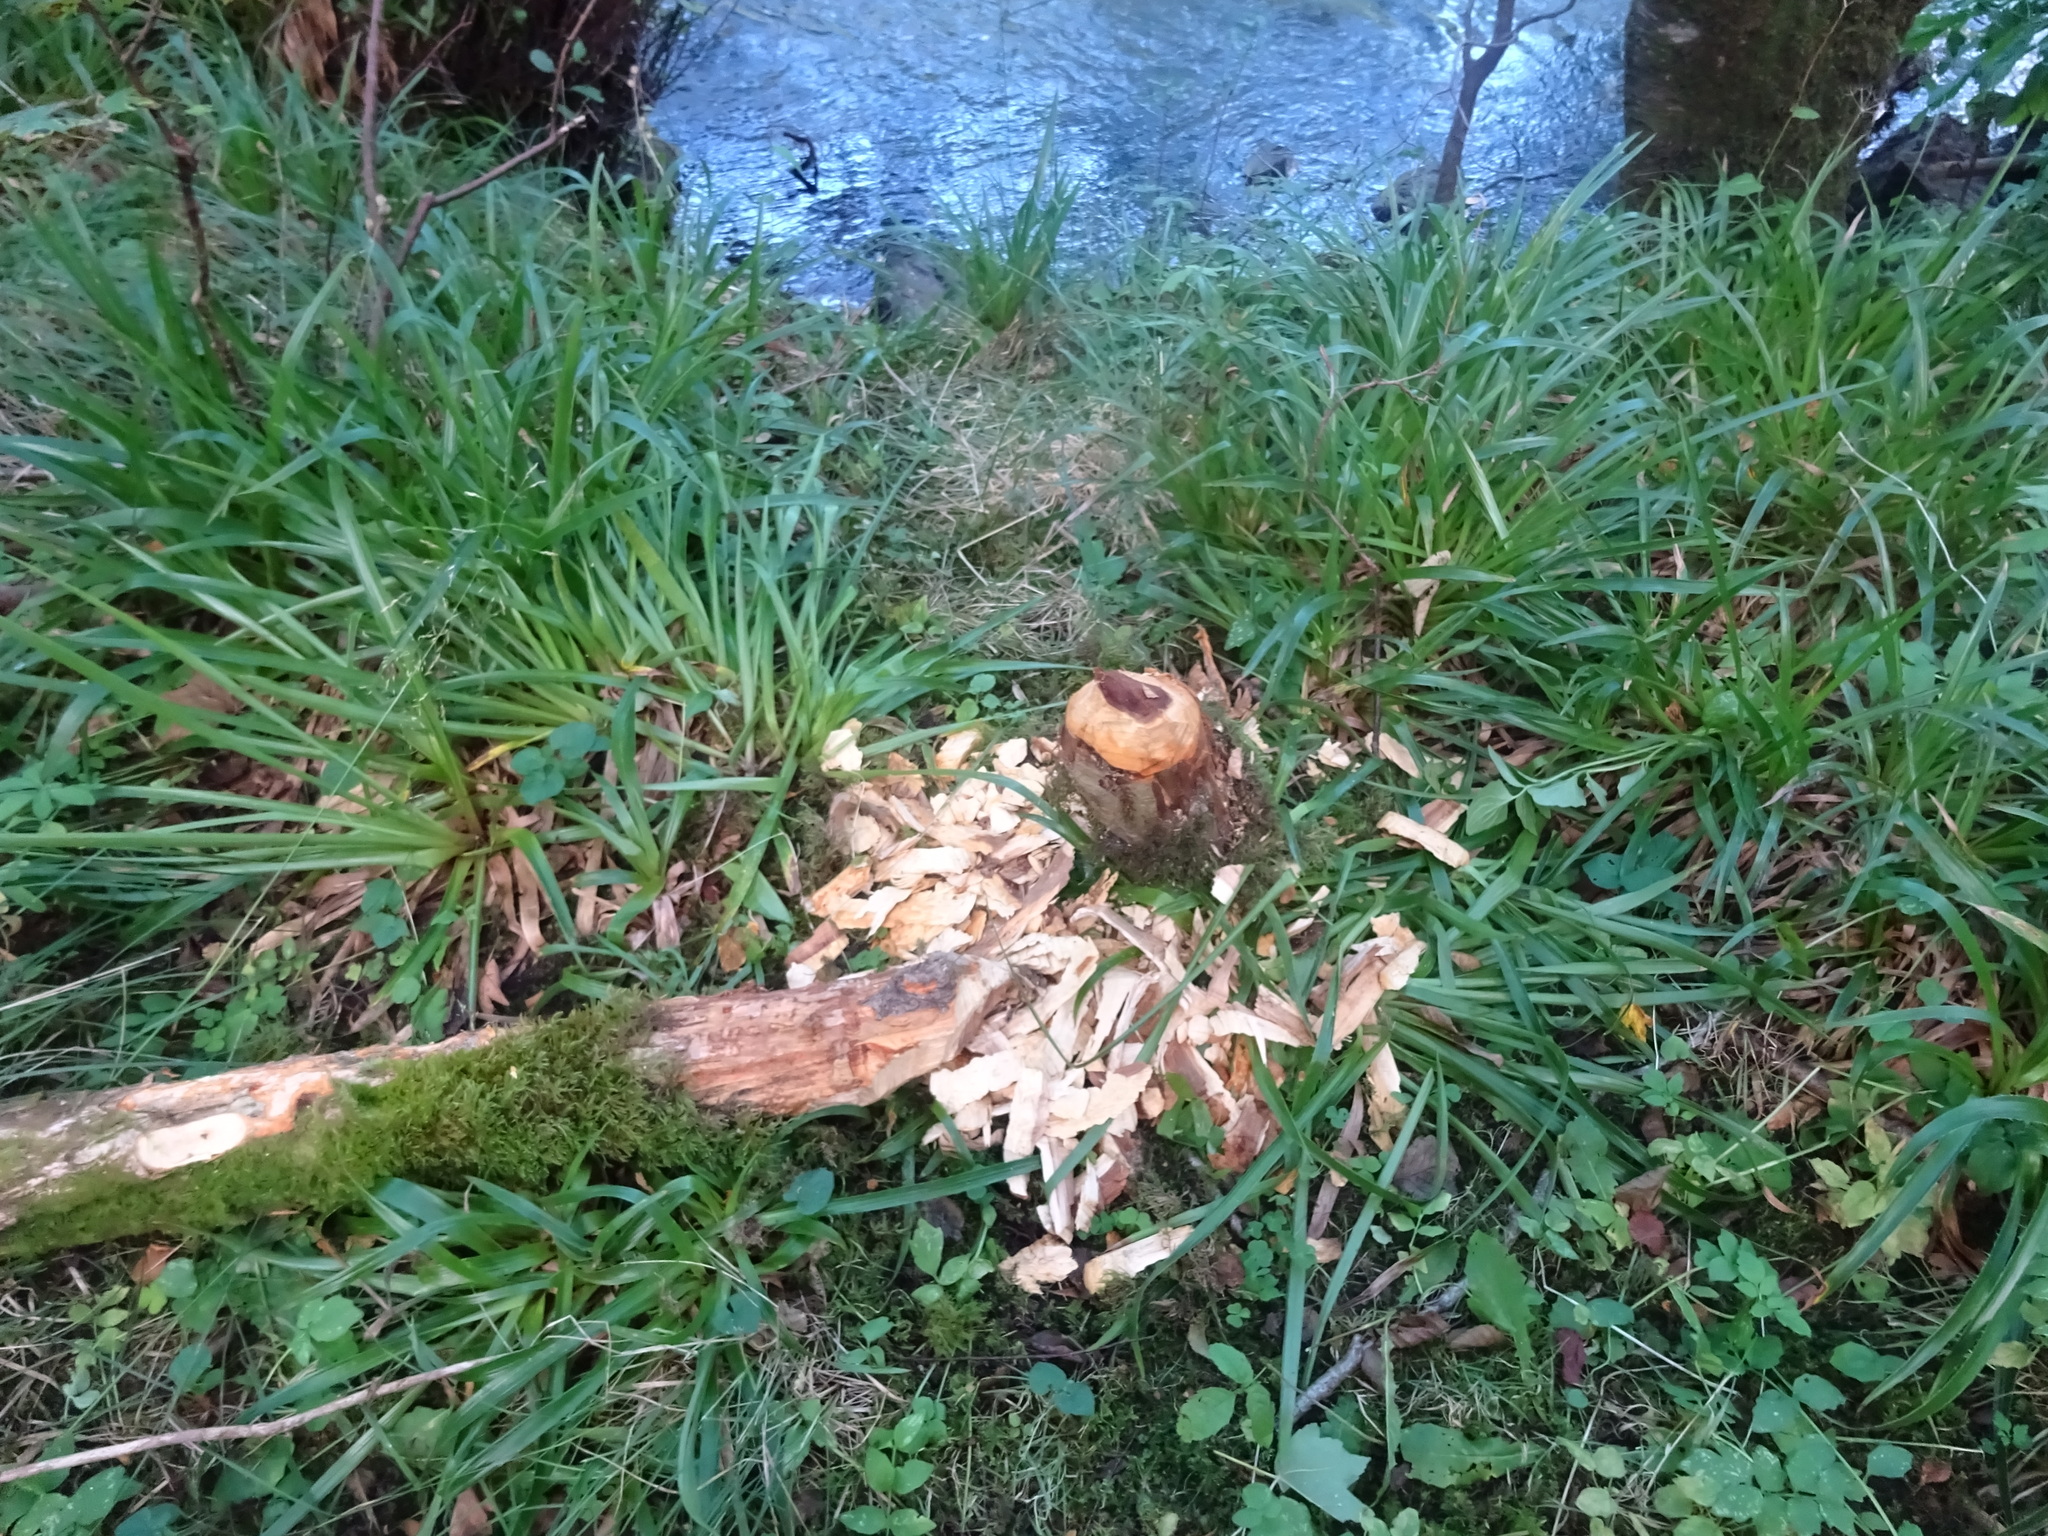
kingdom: Animalia
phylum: Chordata
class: Mammalia
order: Rodentia
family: Castoridae
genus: Castor
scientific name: Castor fiber
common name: Eurasian beaver
